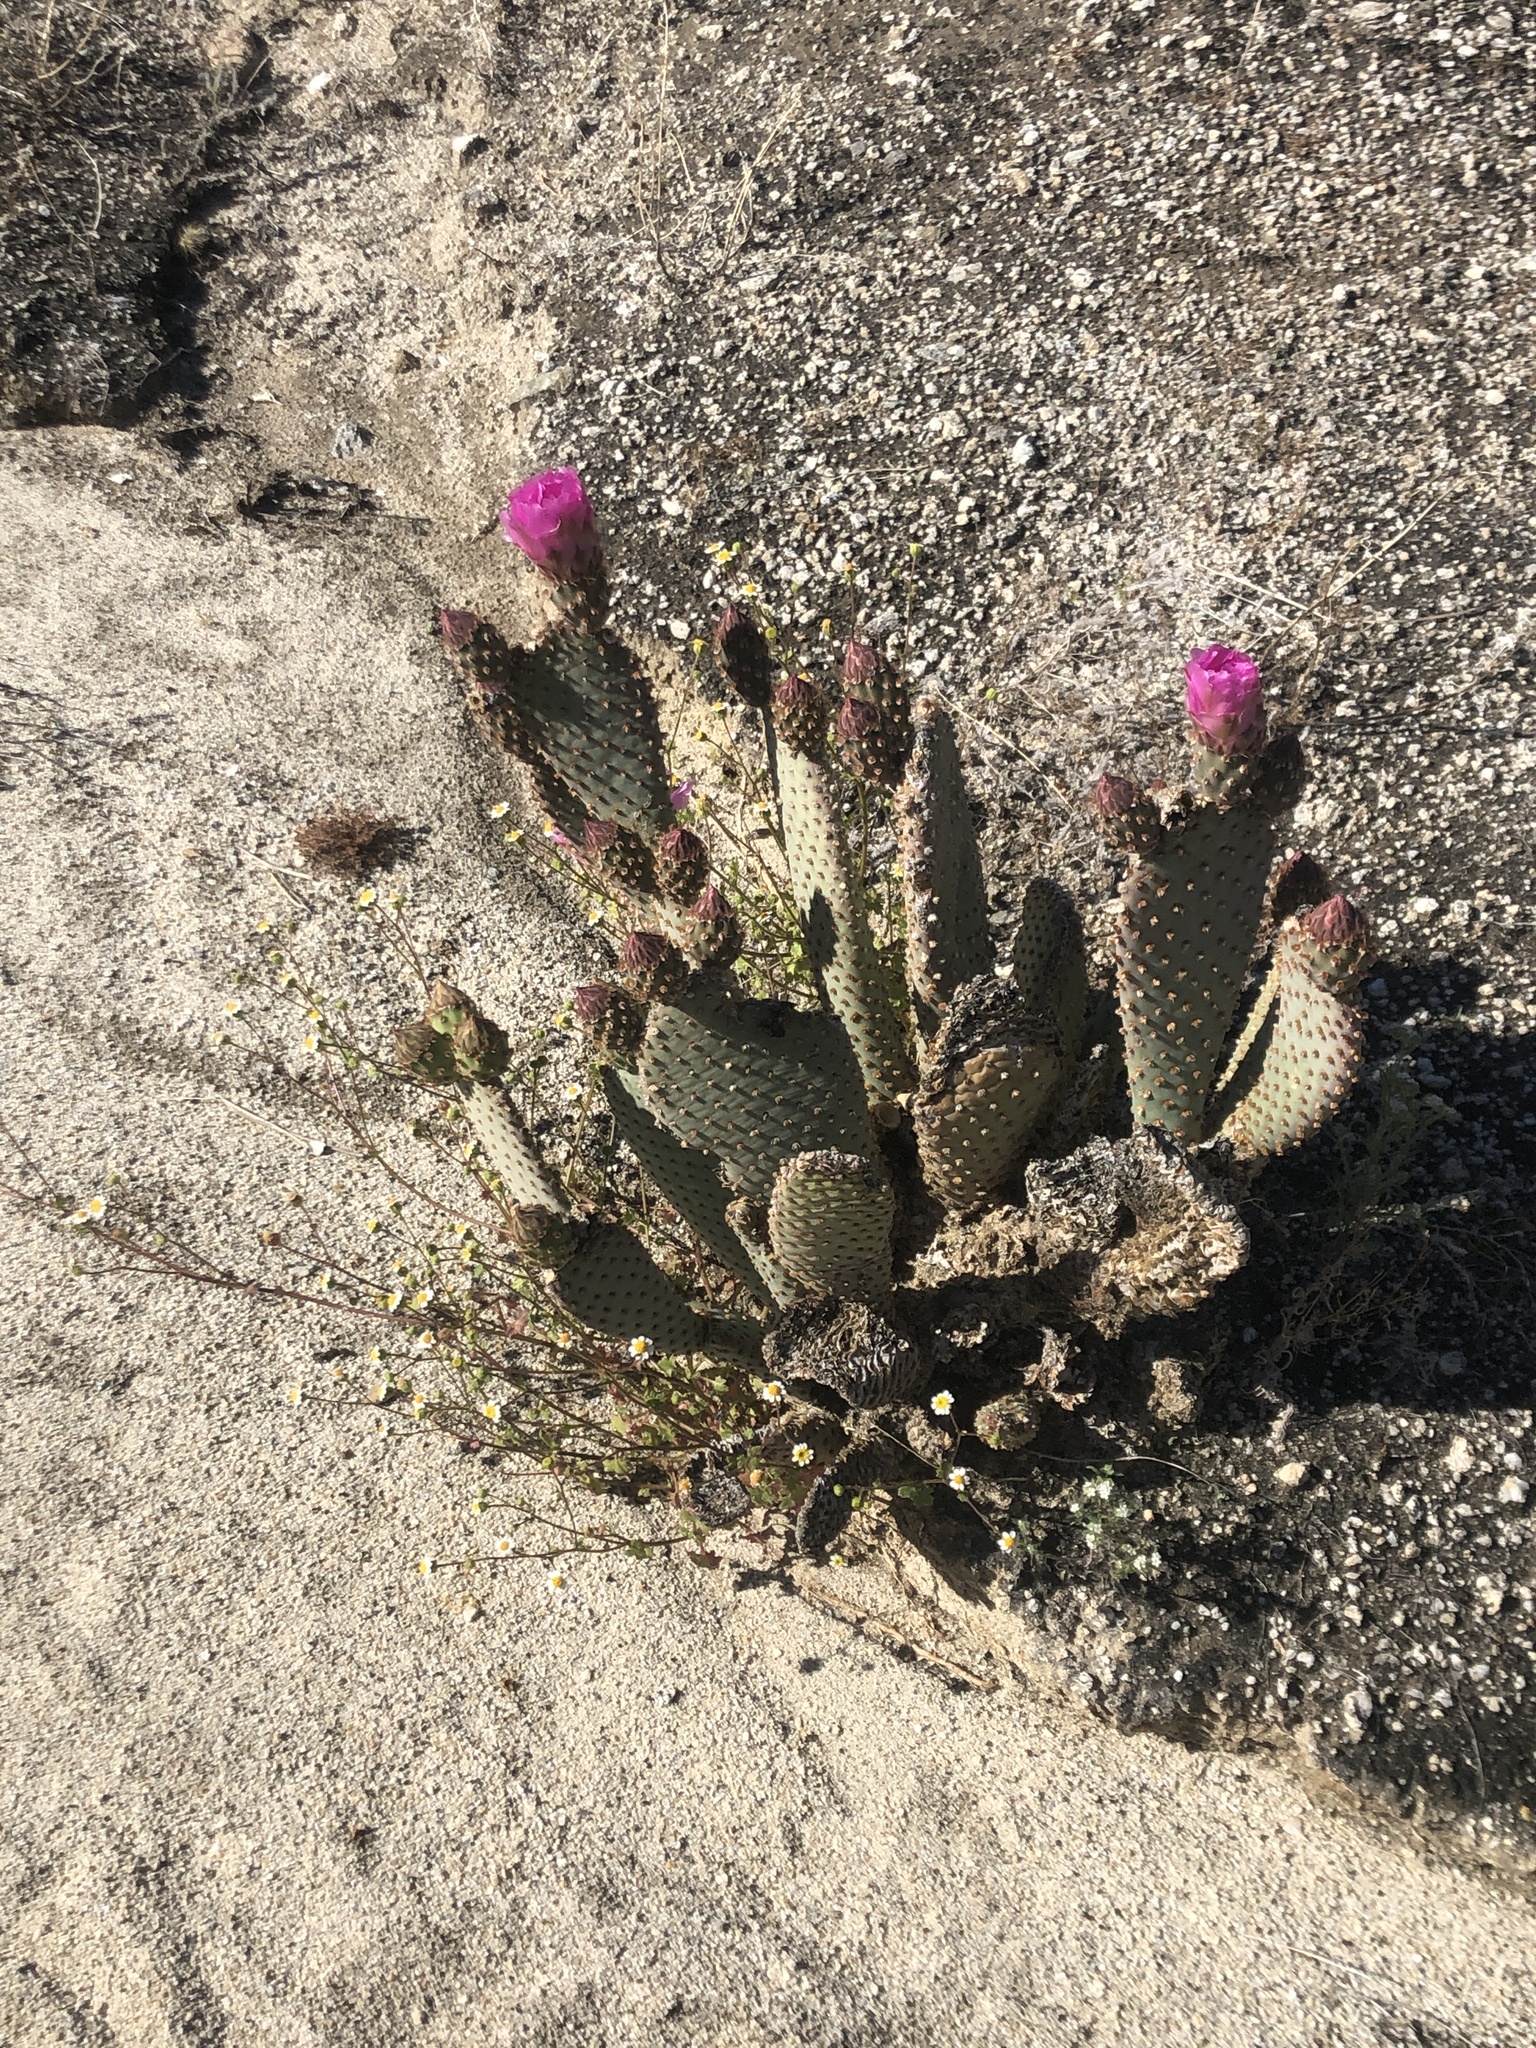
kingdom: Plantae
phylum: Tracheophyta
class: Magnoliopsida
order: Caryophyllales
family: Cactaceae
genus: Opuntia
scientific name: Opuntia basilaris
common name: Beavertail prickly-pear
